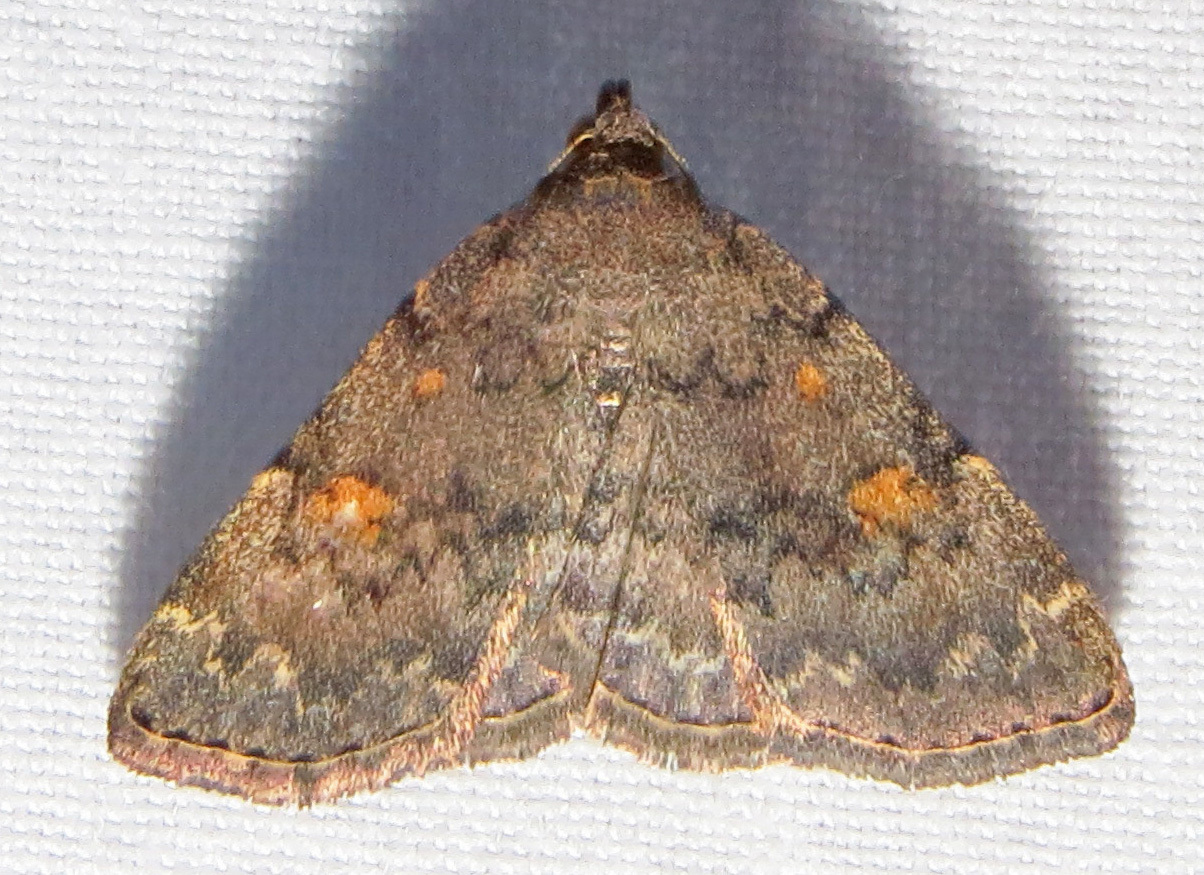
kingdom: Animalia
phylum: Arthropoda
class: Insecta
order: Lepidoptera
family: Erebidae
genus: Idia
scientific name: Idia aemula
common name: Common idia moth
